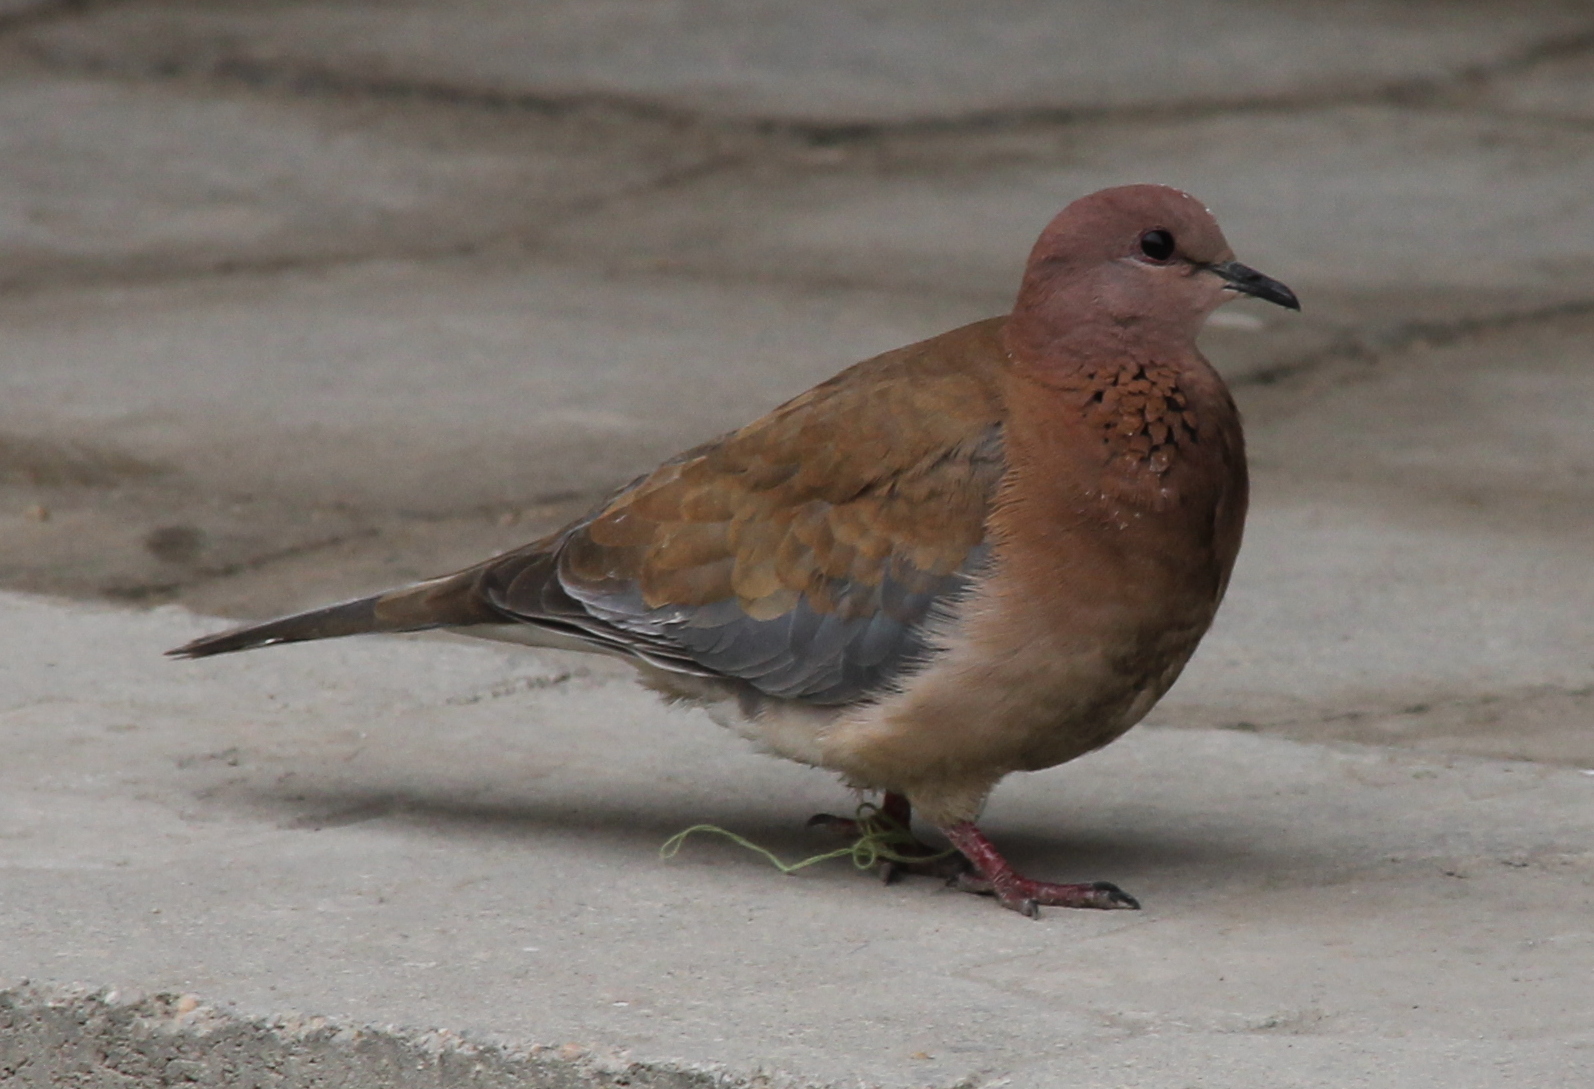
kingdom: Animalia
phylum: Chordata
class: Aves
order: Columbiformes
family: Columbidae
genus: Spilopelia
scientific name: Spilopelia senegalensis
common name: Laughing dove
